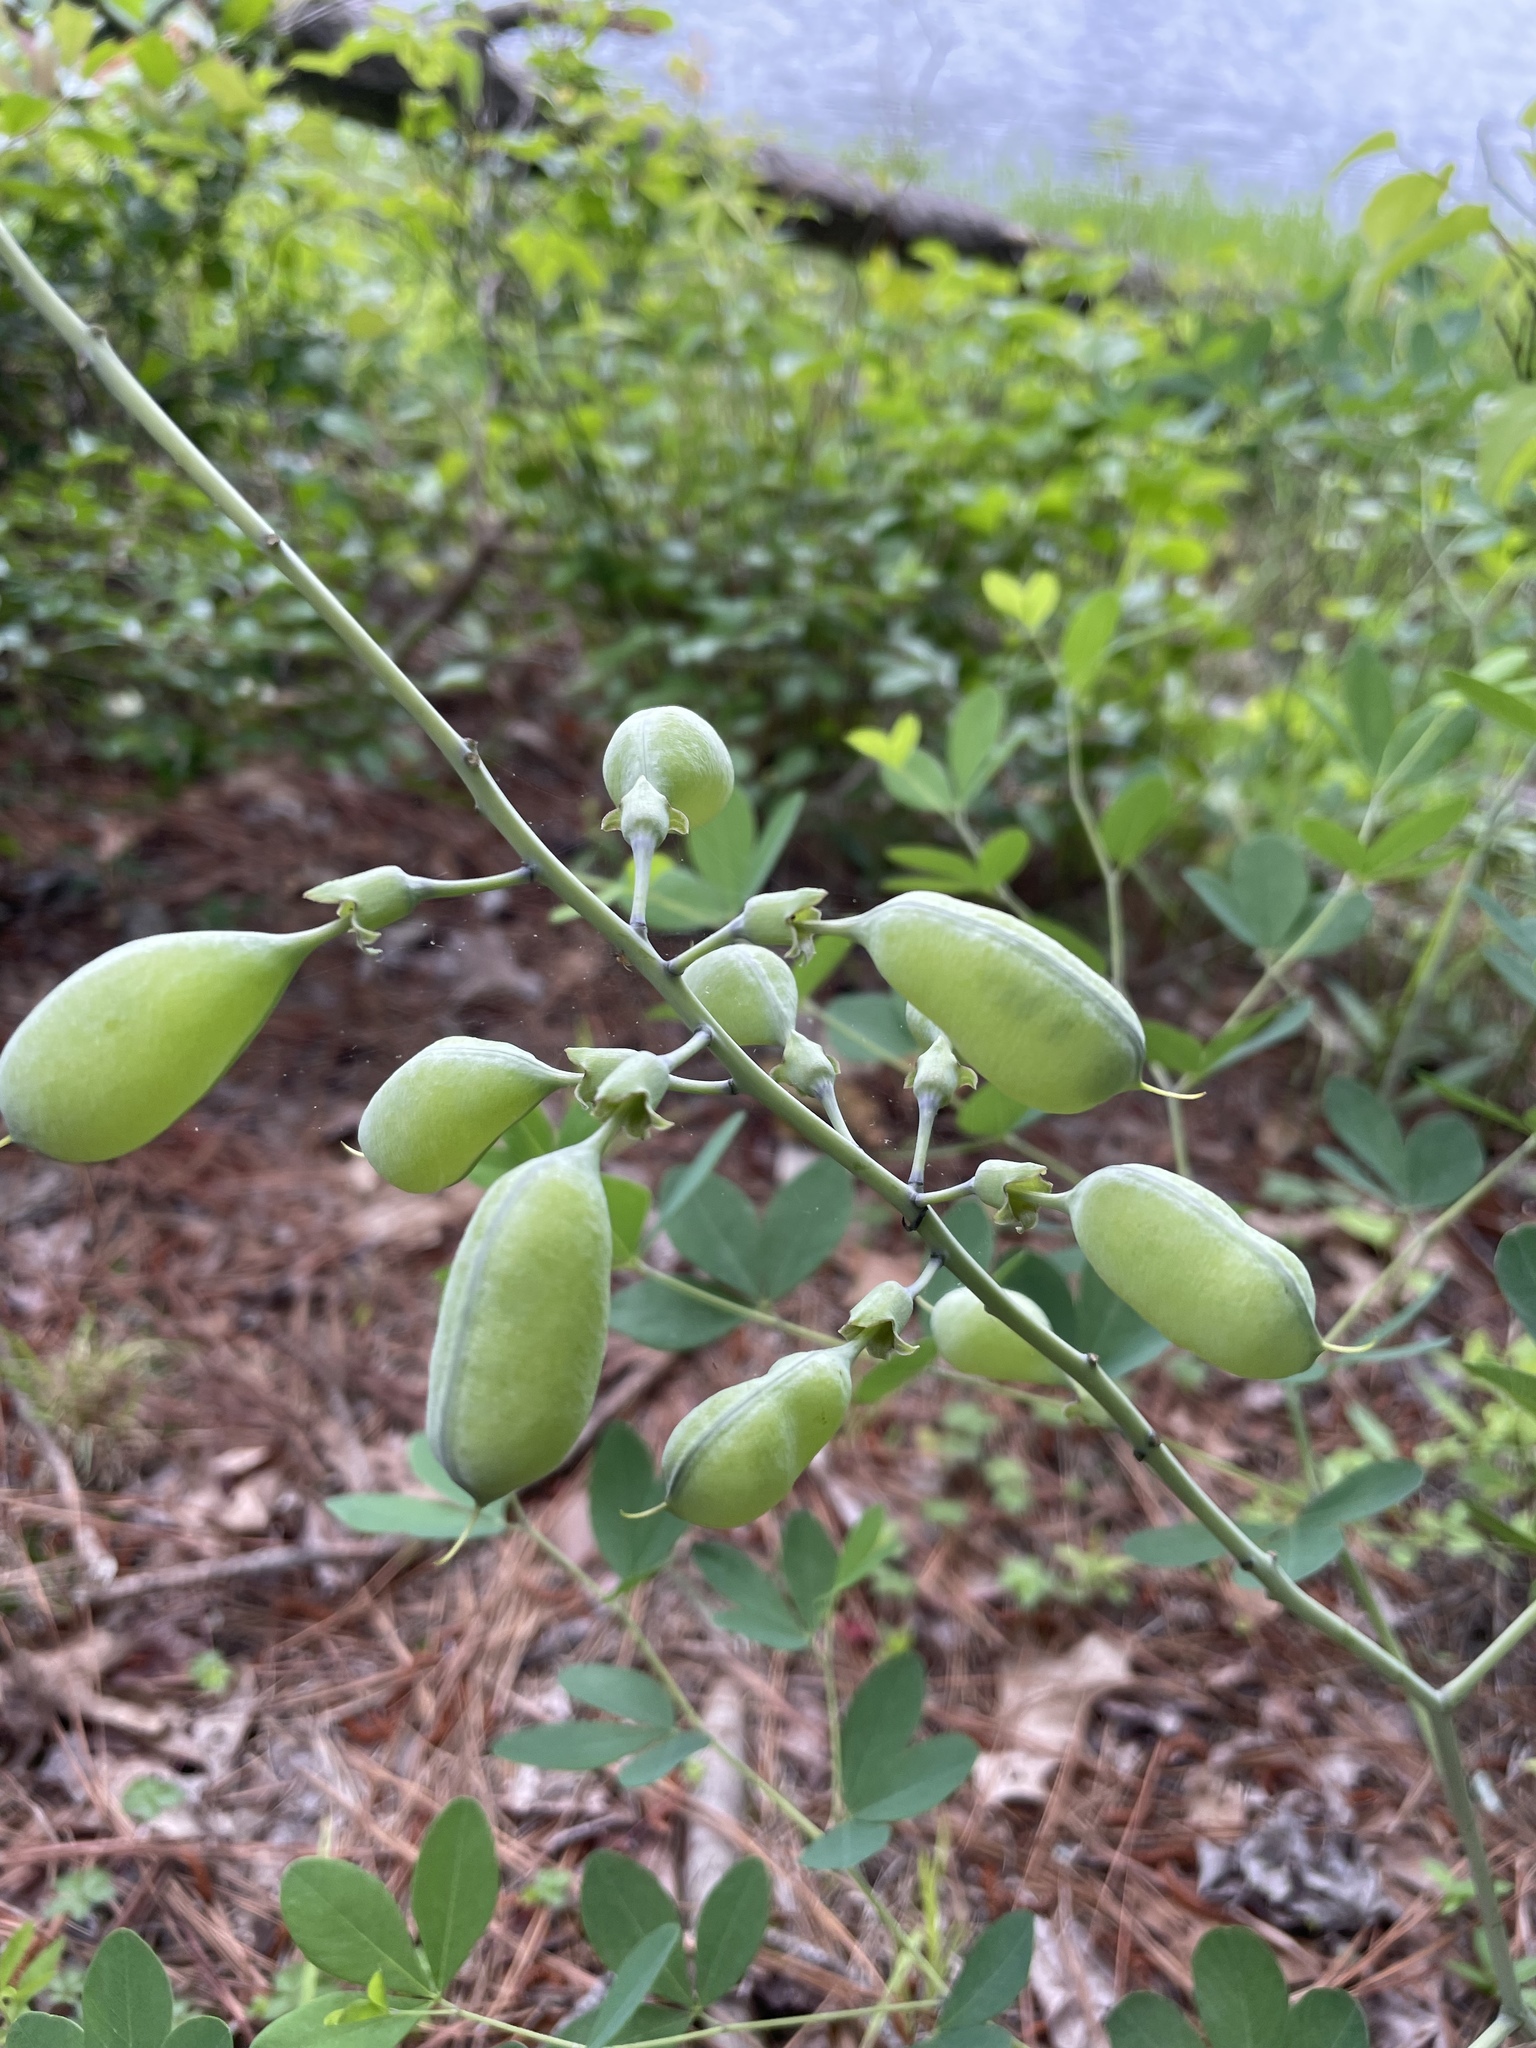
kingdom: Plantae
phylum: Tracheophyta
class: Magnoliopsida
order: Fabales
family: Fabaceae
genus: Baptisia
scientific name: Baptisia alba
